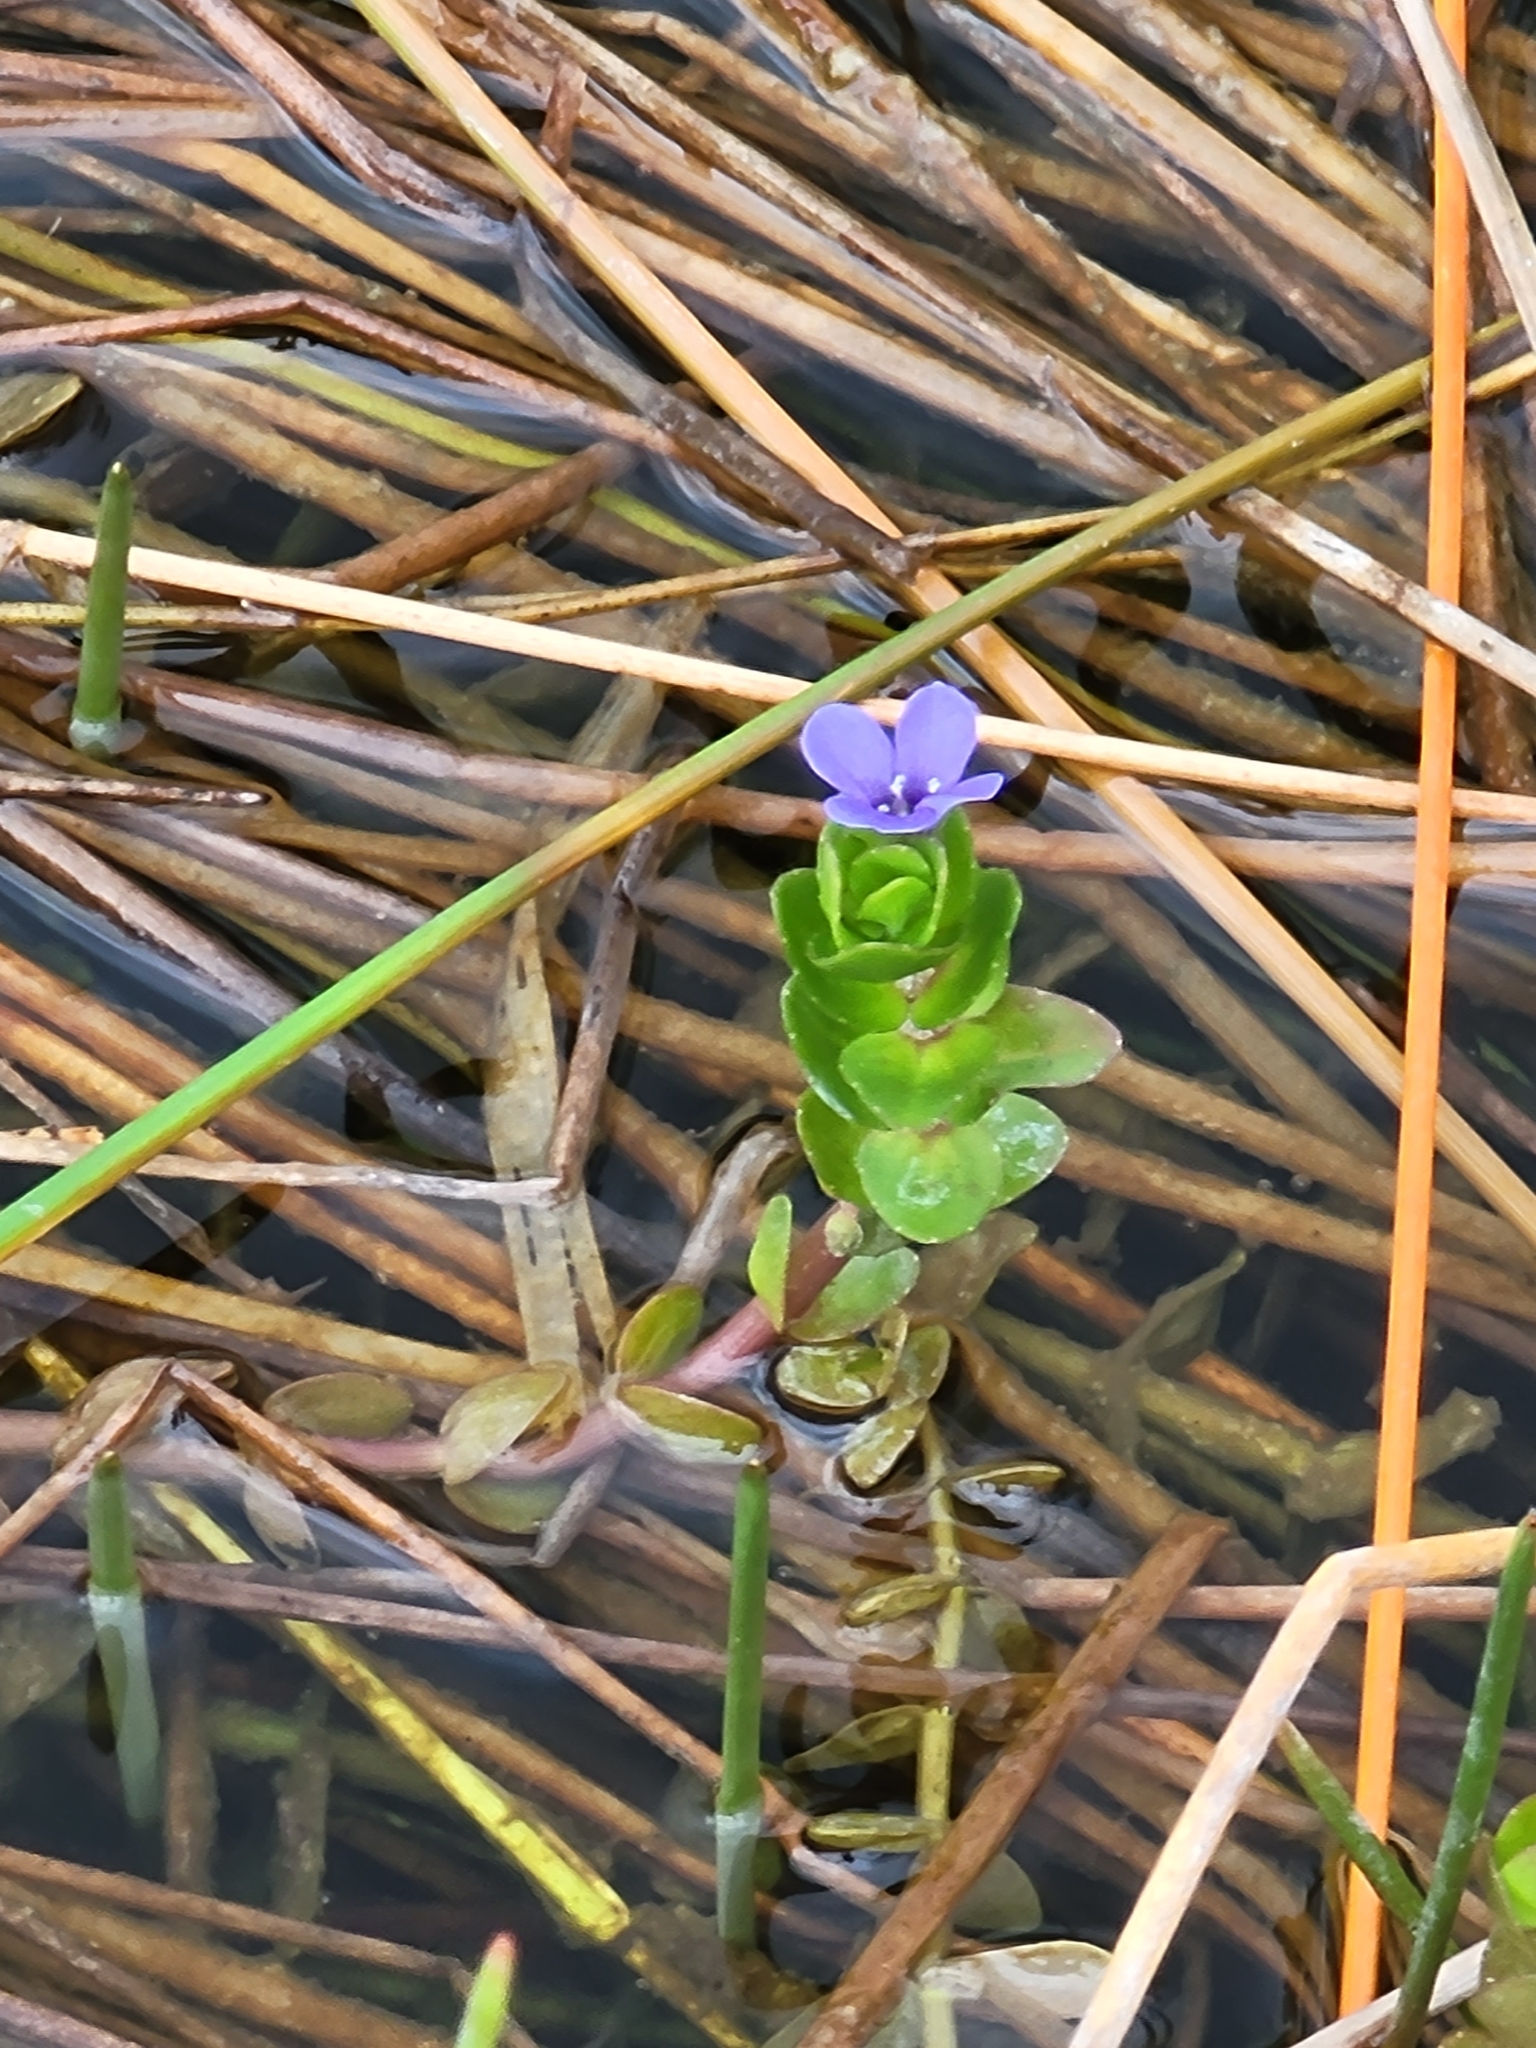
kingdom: Plantae
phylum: Tracheophyta
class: Magnoliopsida
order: Lamiales
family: Plantaginaceae
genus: Bacopa
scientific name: Bacopa caroliniana
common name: Lemon bacopa
